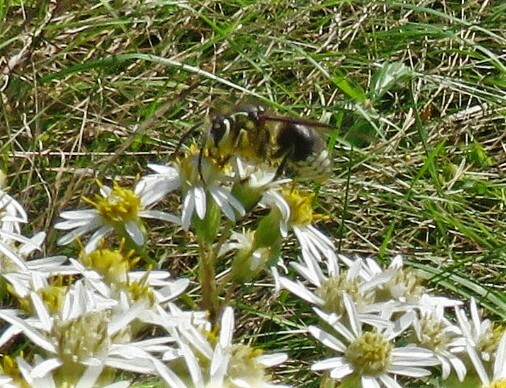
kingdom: Animalia
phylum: Arthropoda
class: Insecta
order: Hymenoptera
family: Vespidae
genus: Dolichovespula
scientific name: Dolichovespula maculata
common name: Bald-faced hornet
